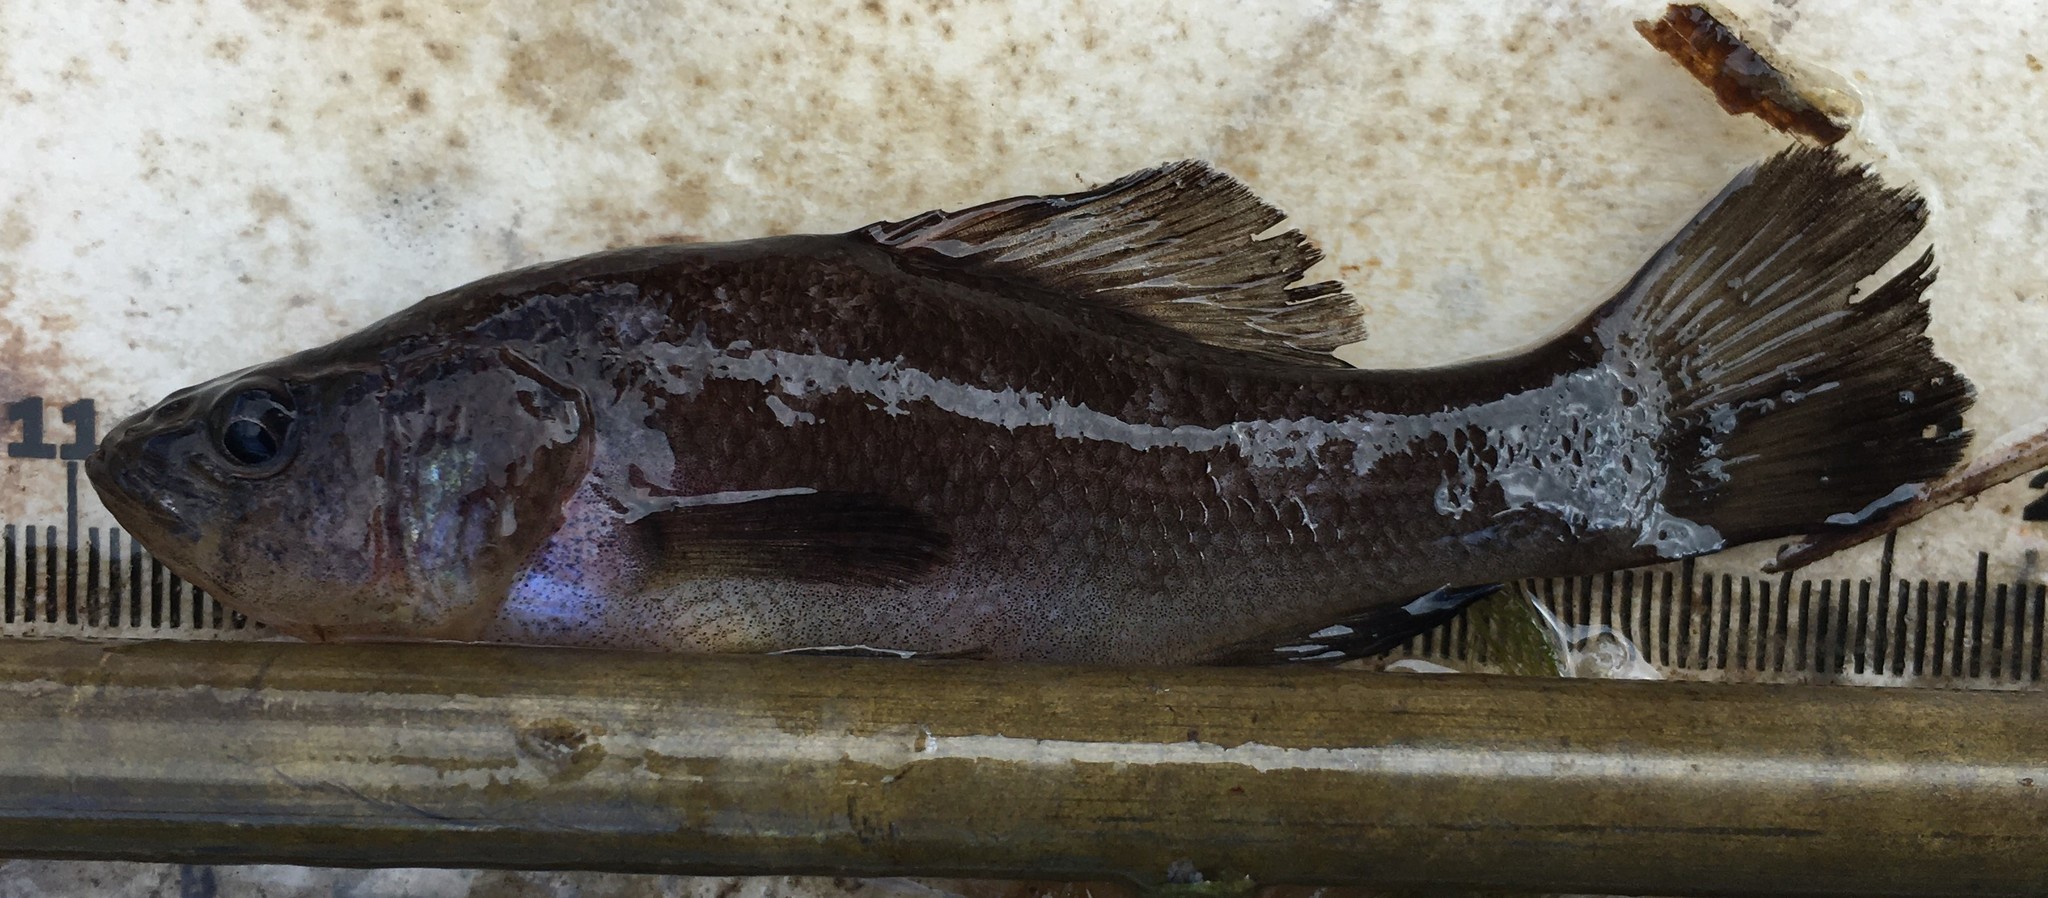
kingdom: Animalia
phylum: Chordata
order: Percopsiformes
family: Aphredoderidae
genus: Aphredoderus
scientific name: Aphredoderus sayanus
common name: Pirate perch
